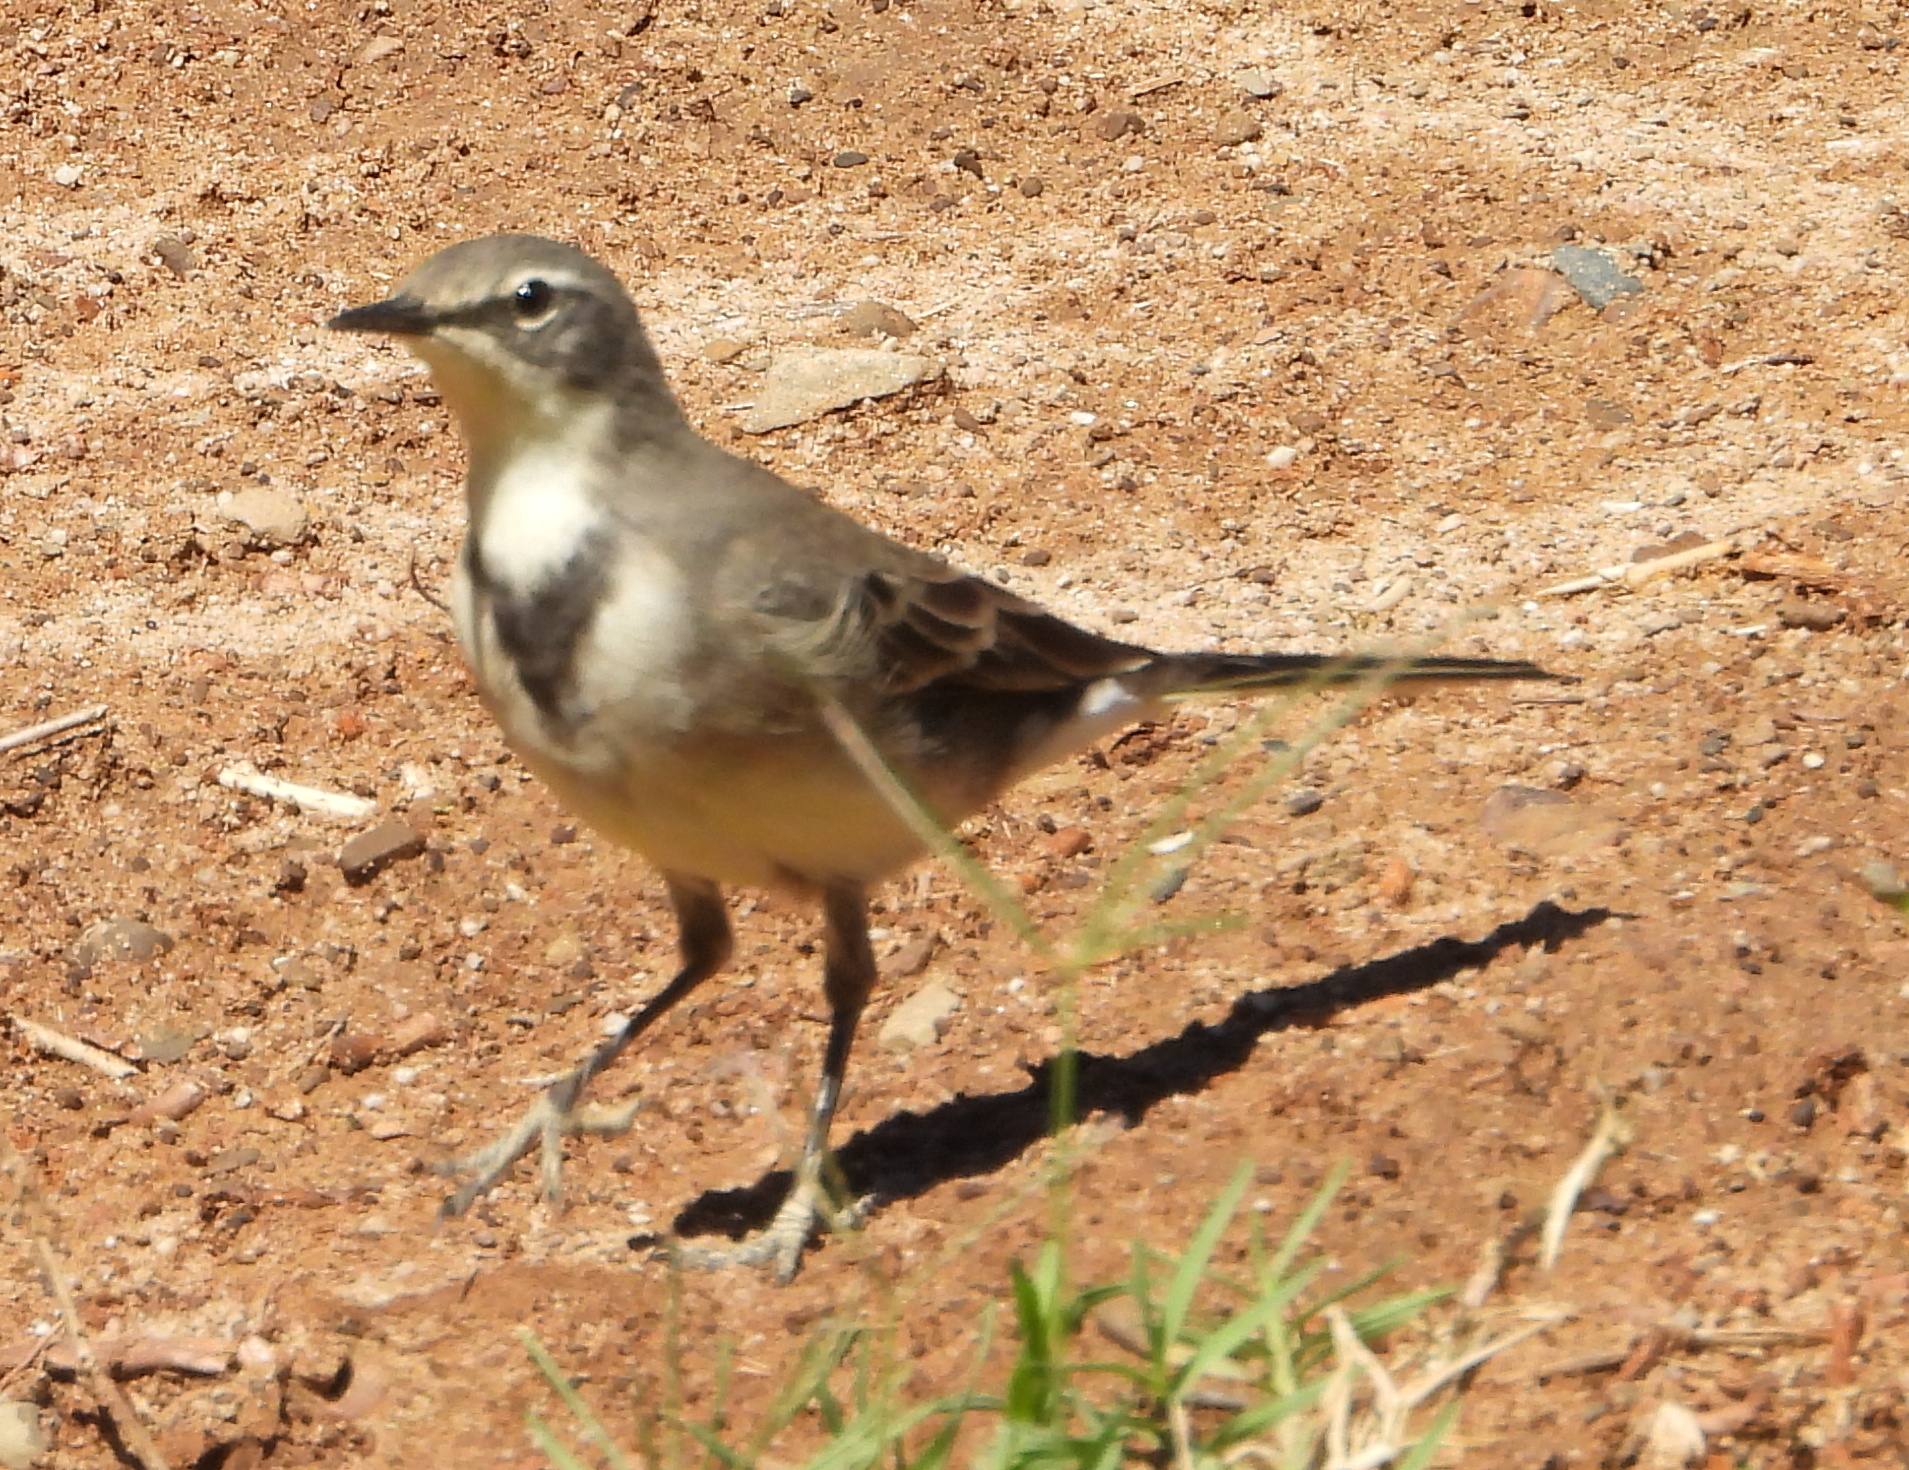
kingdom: Animalia
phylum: Chordata
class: Aves
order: Passeriformes
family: Motacillidae
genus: Motacilla
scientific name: Motacilla capensis
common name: Cape wagtail
